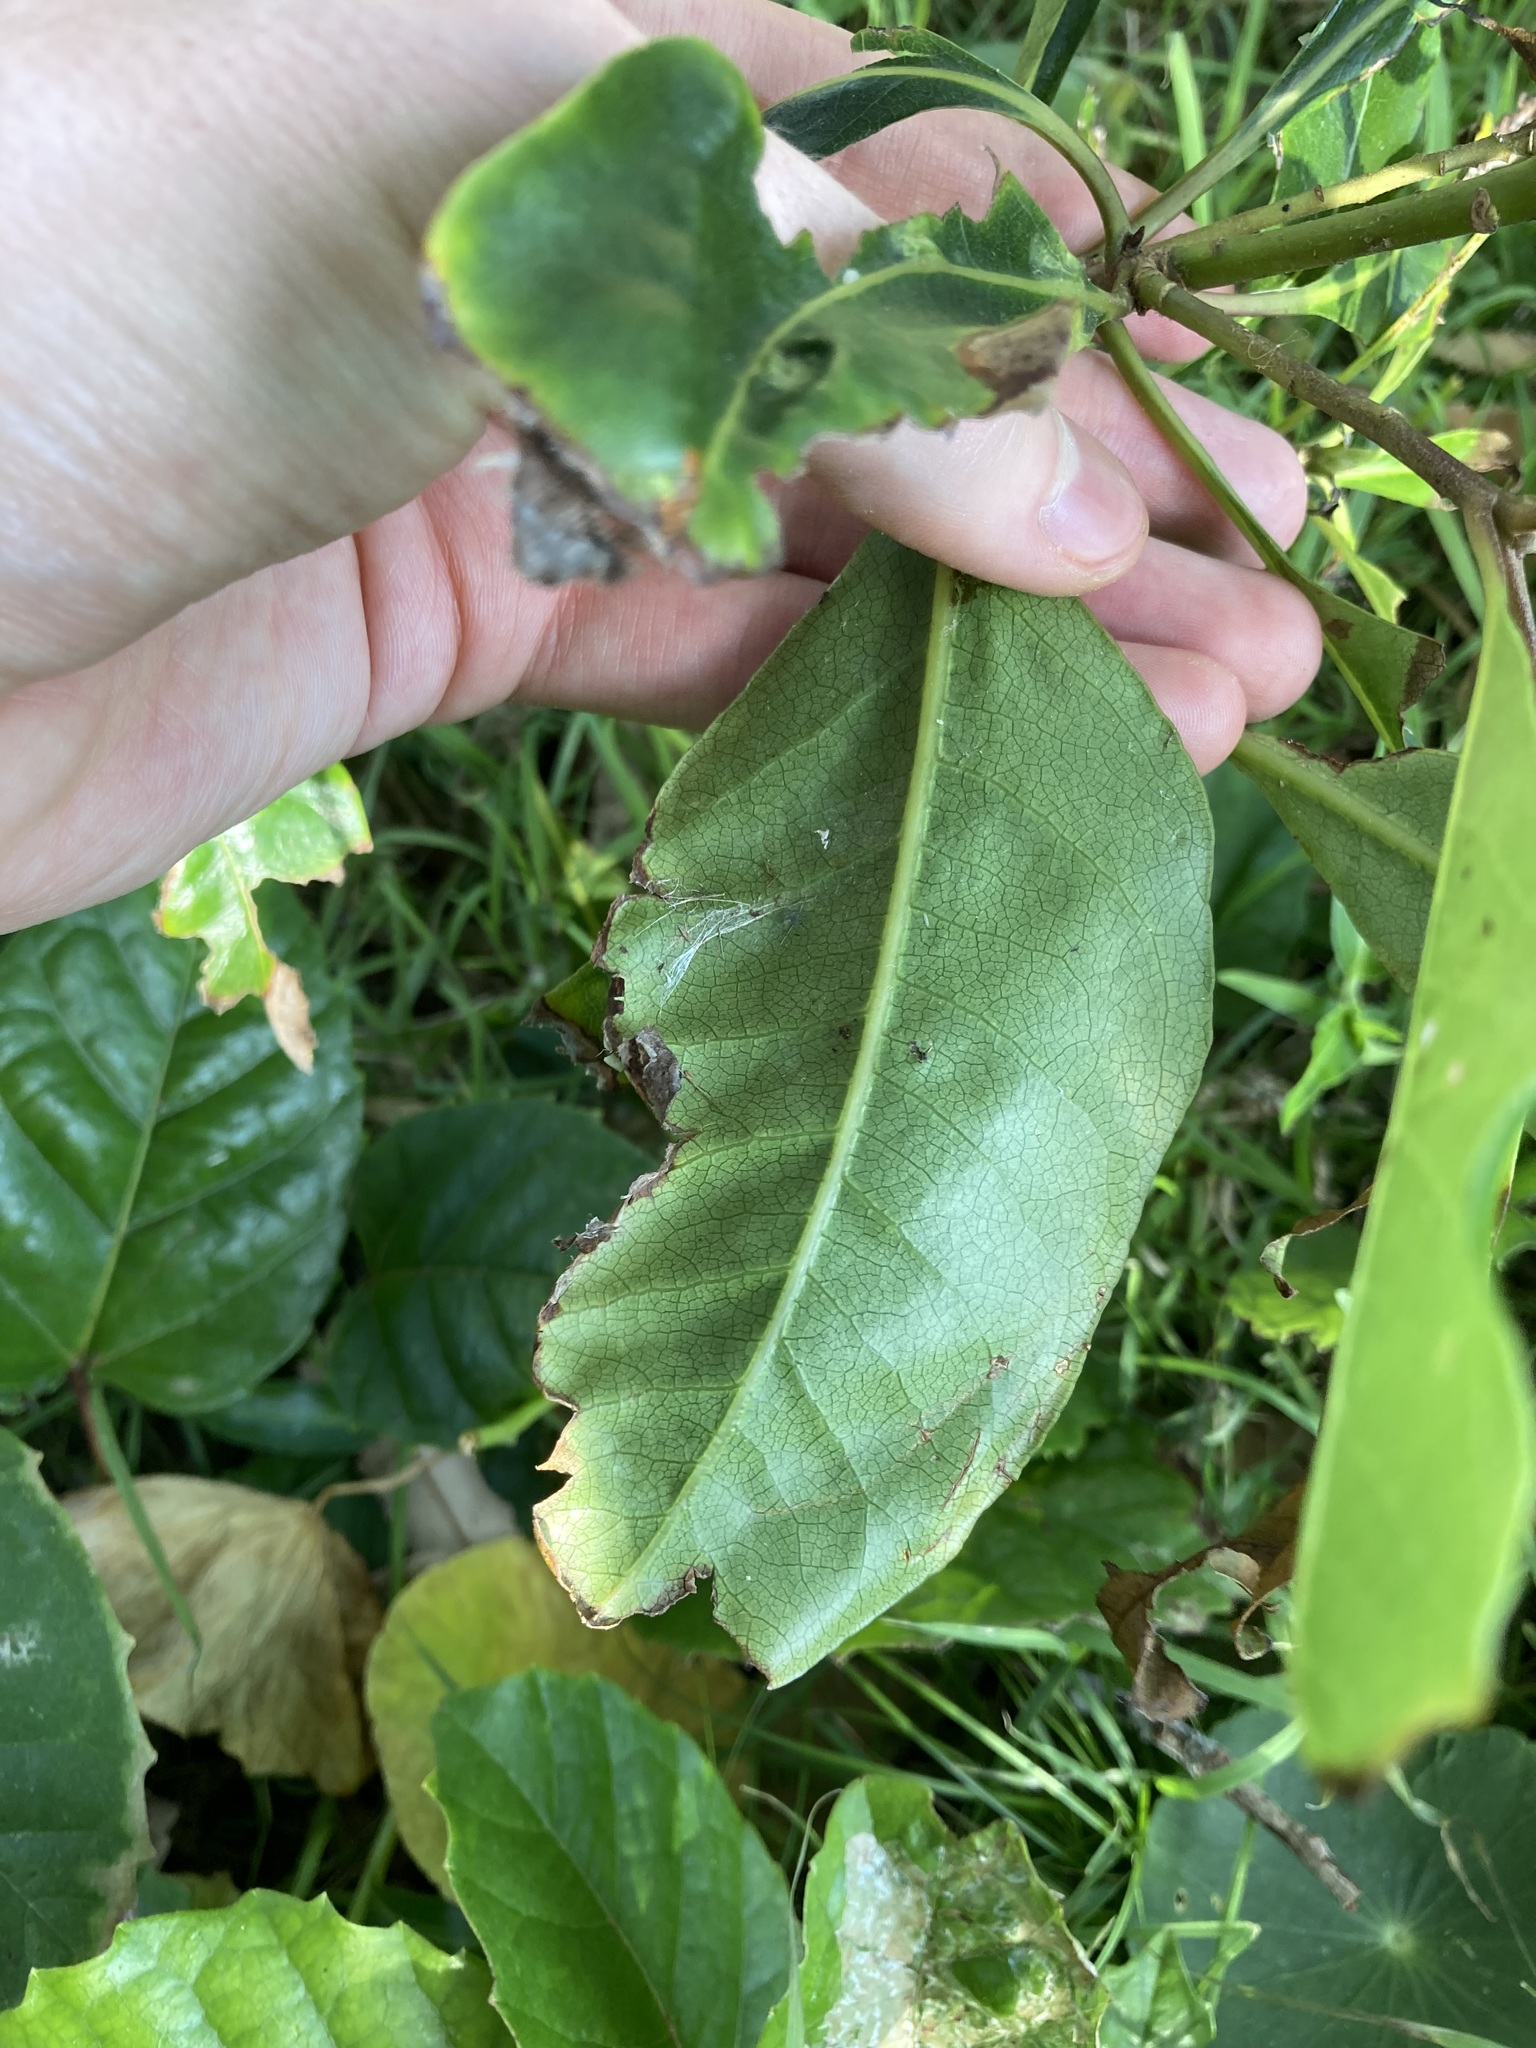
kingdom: Plantae
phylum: Tracheophyta
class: Magnoliopsida
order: Apiales
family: Pittosporaceae
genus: Pittosporum
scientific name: Pittosporum undulatum
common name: Australian cheesewood
